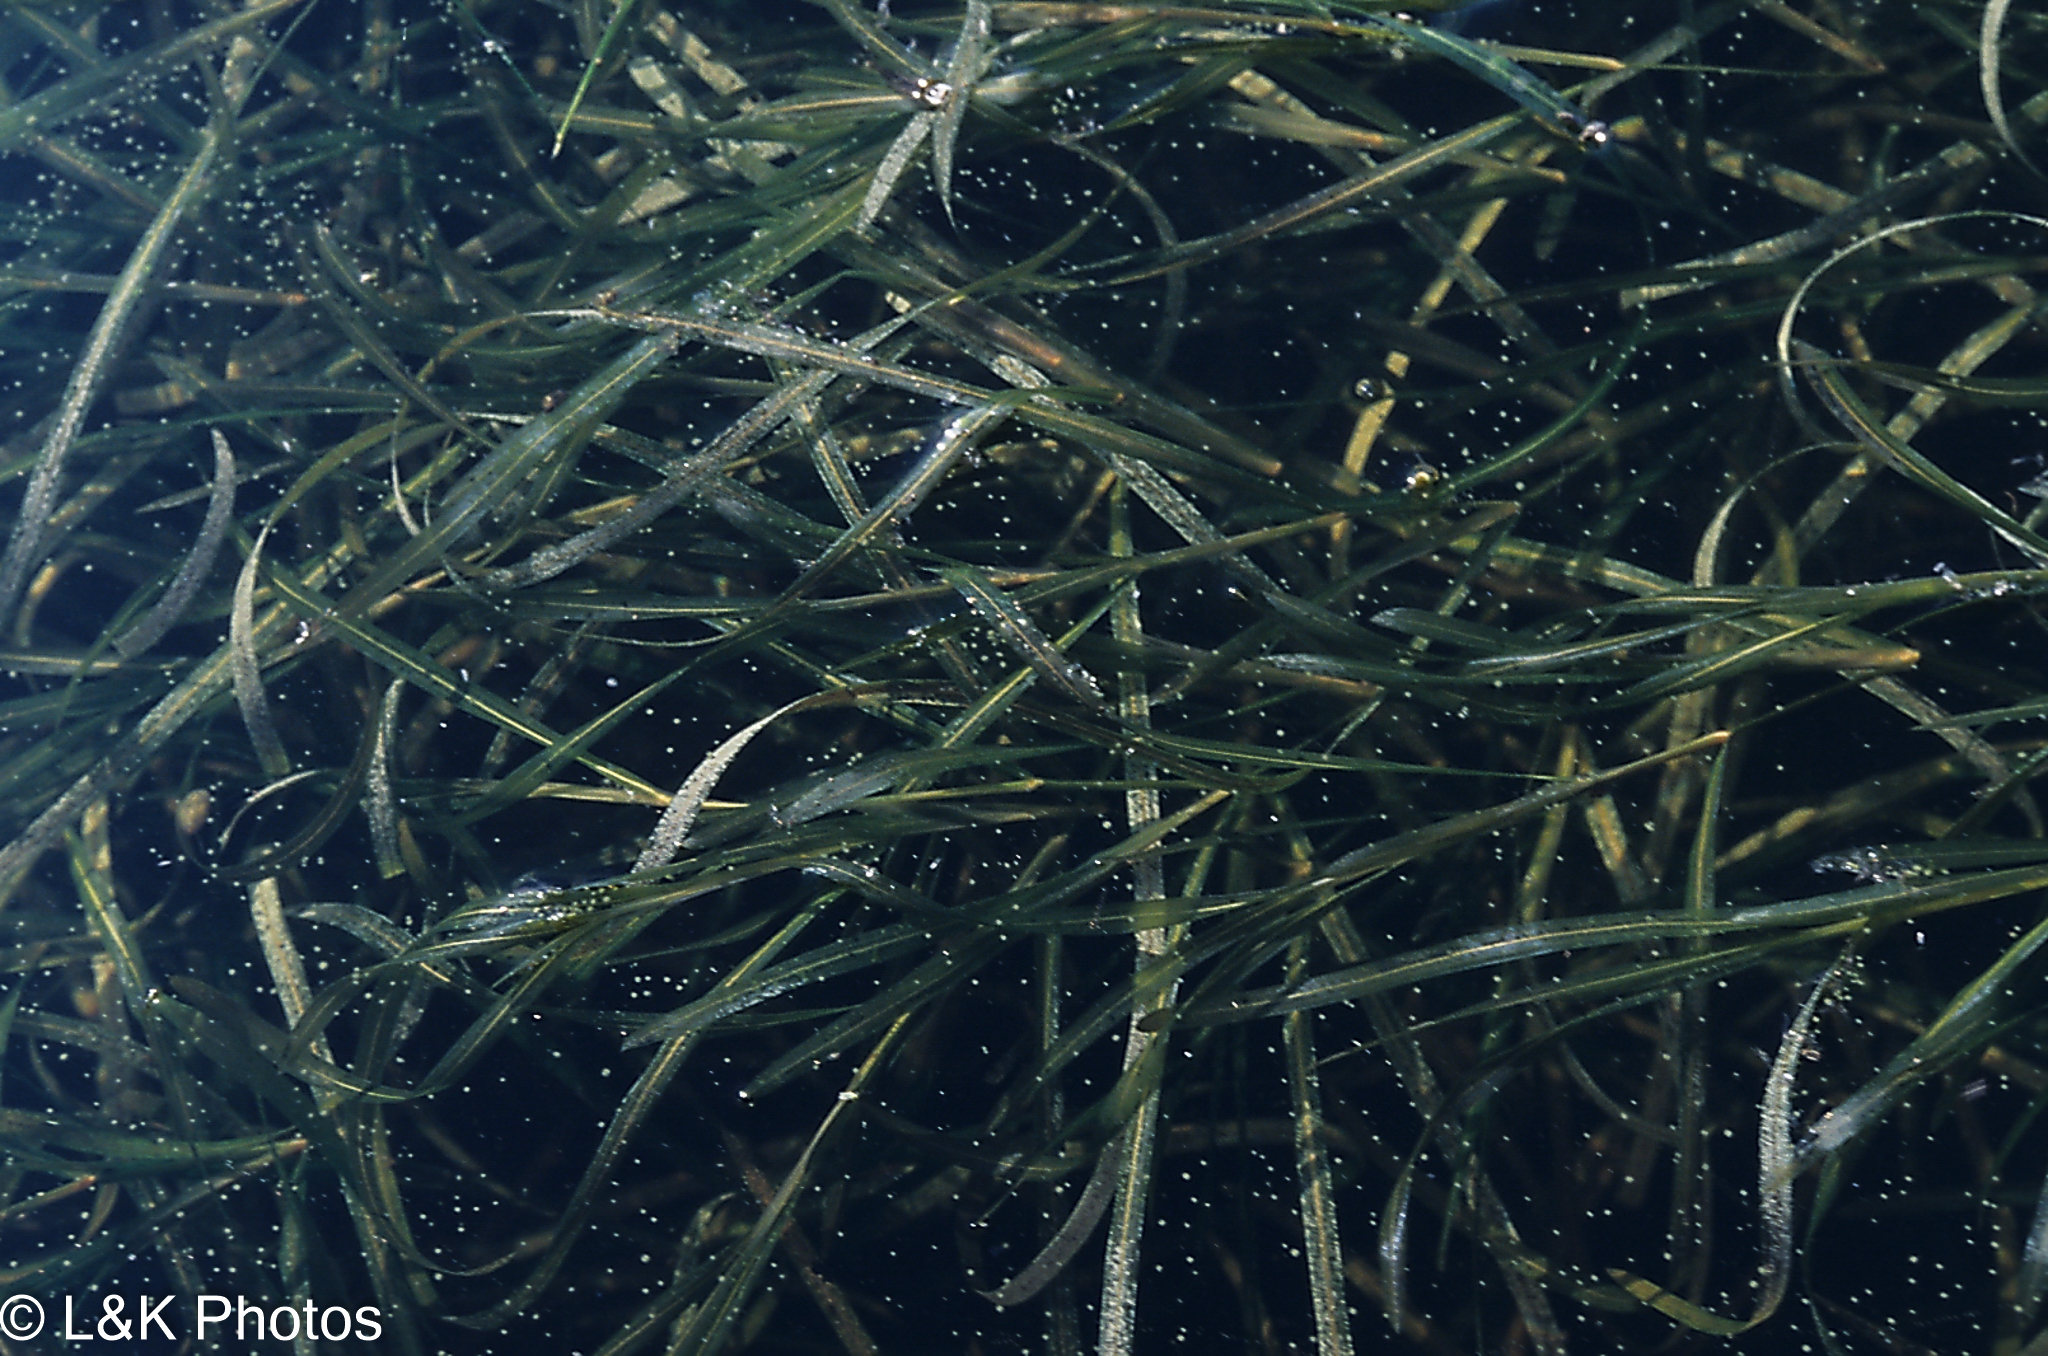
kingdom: Plantae
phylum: Tracheophyta
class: Liliopsida
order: Alismatales
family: Potamogetonaceae
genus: Potamogeton
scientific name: Potamogeton zosteriformis
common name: Eelgrass pondweed
